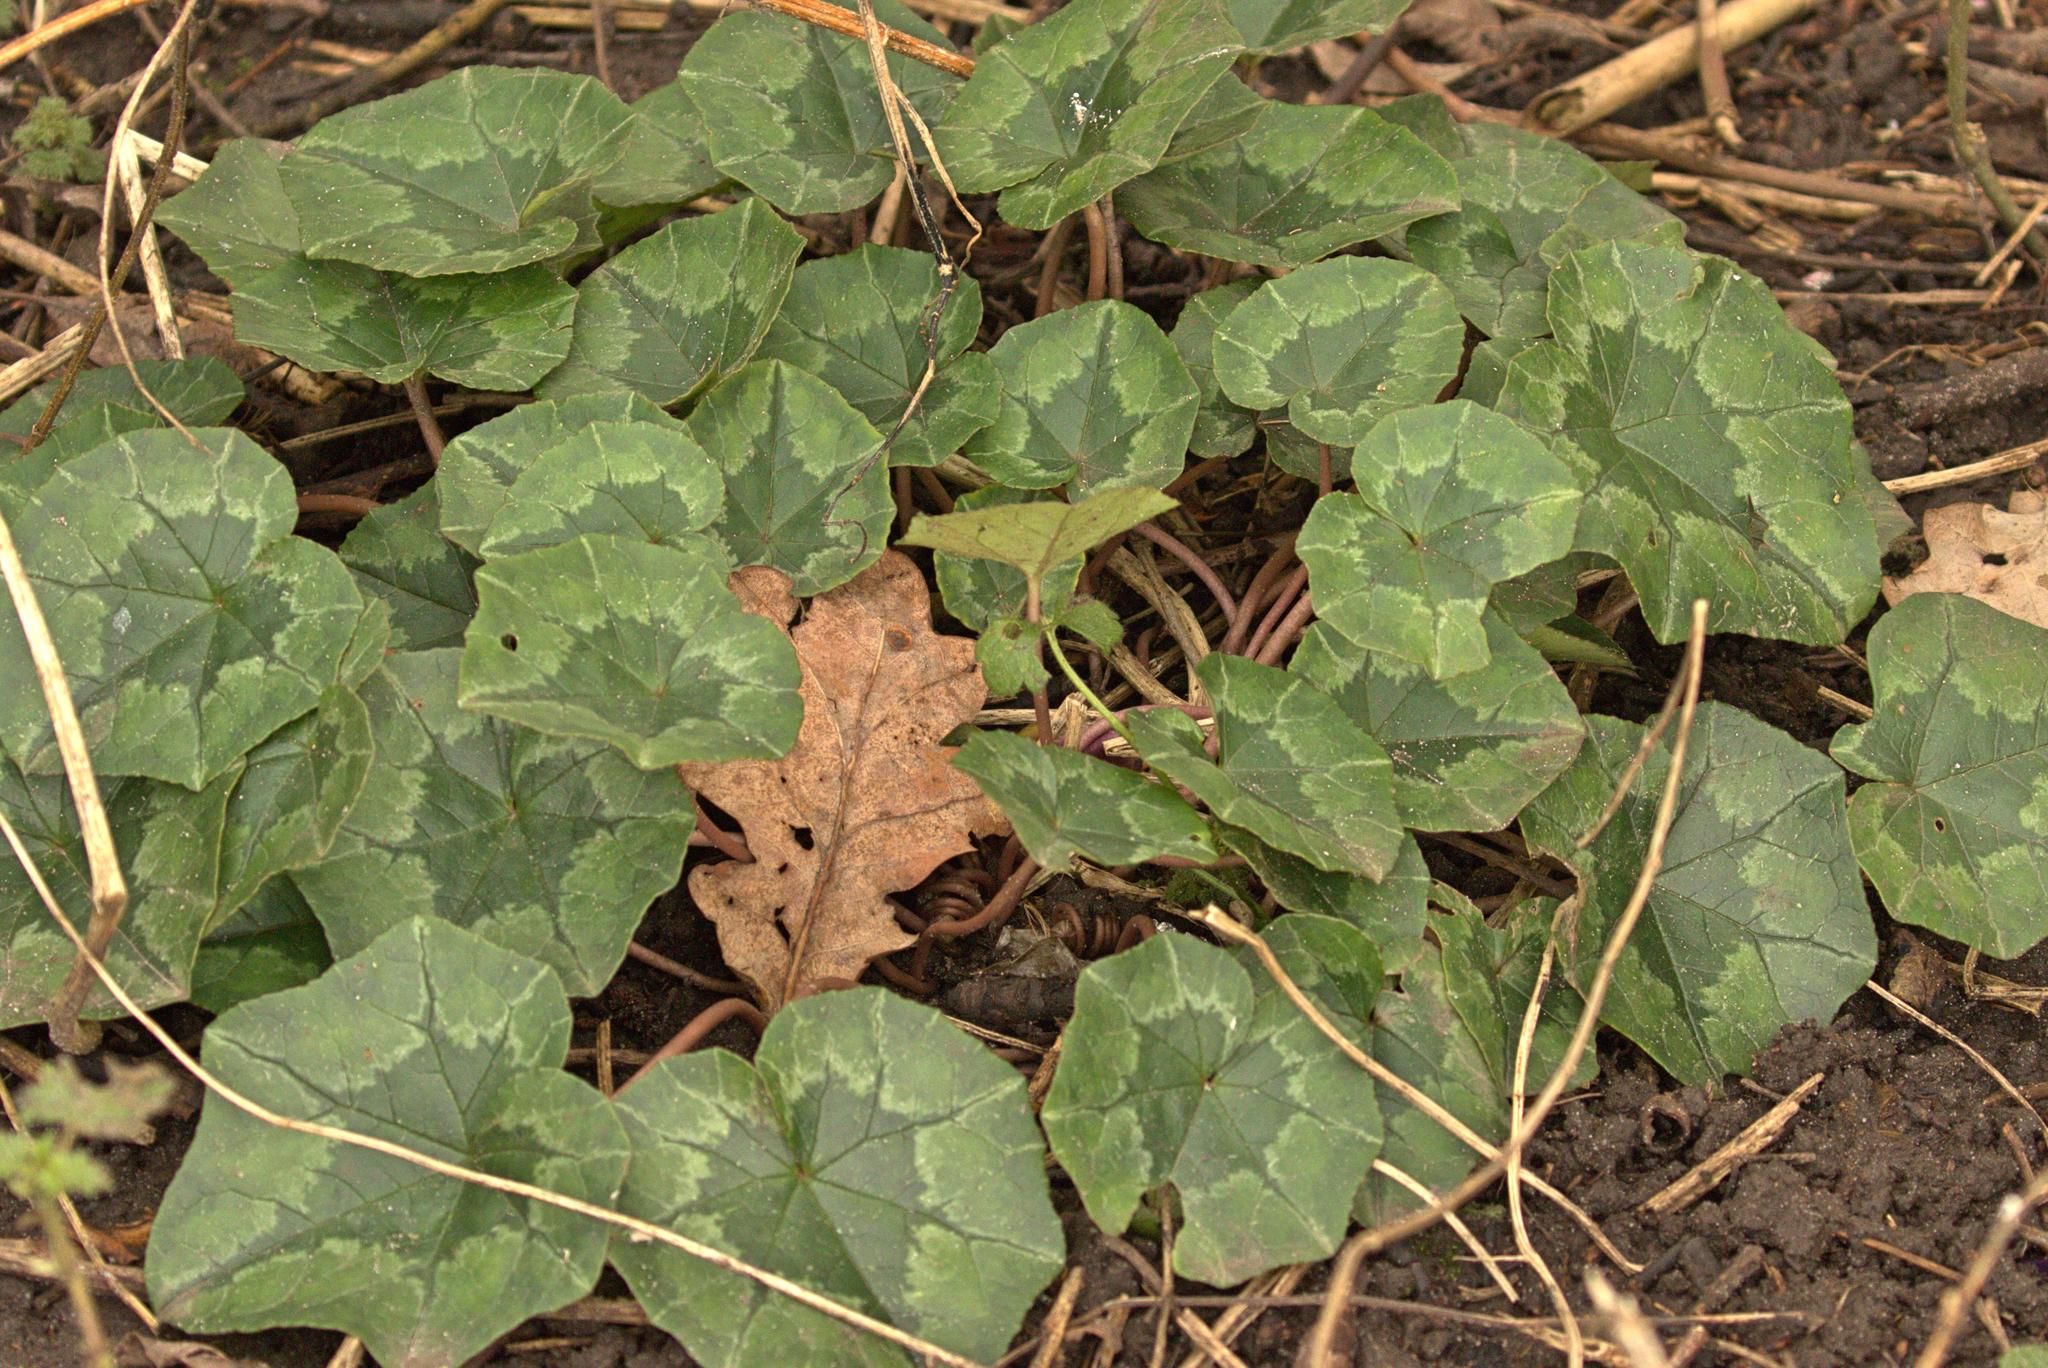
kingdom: Plantae
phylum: Tracheophyta
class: Magnoliopsida
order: Ericales
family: Primulaceae
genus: Cyclamen
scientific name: Cyclamen hederifolium
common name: Sowbread
